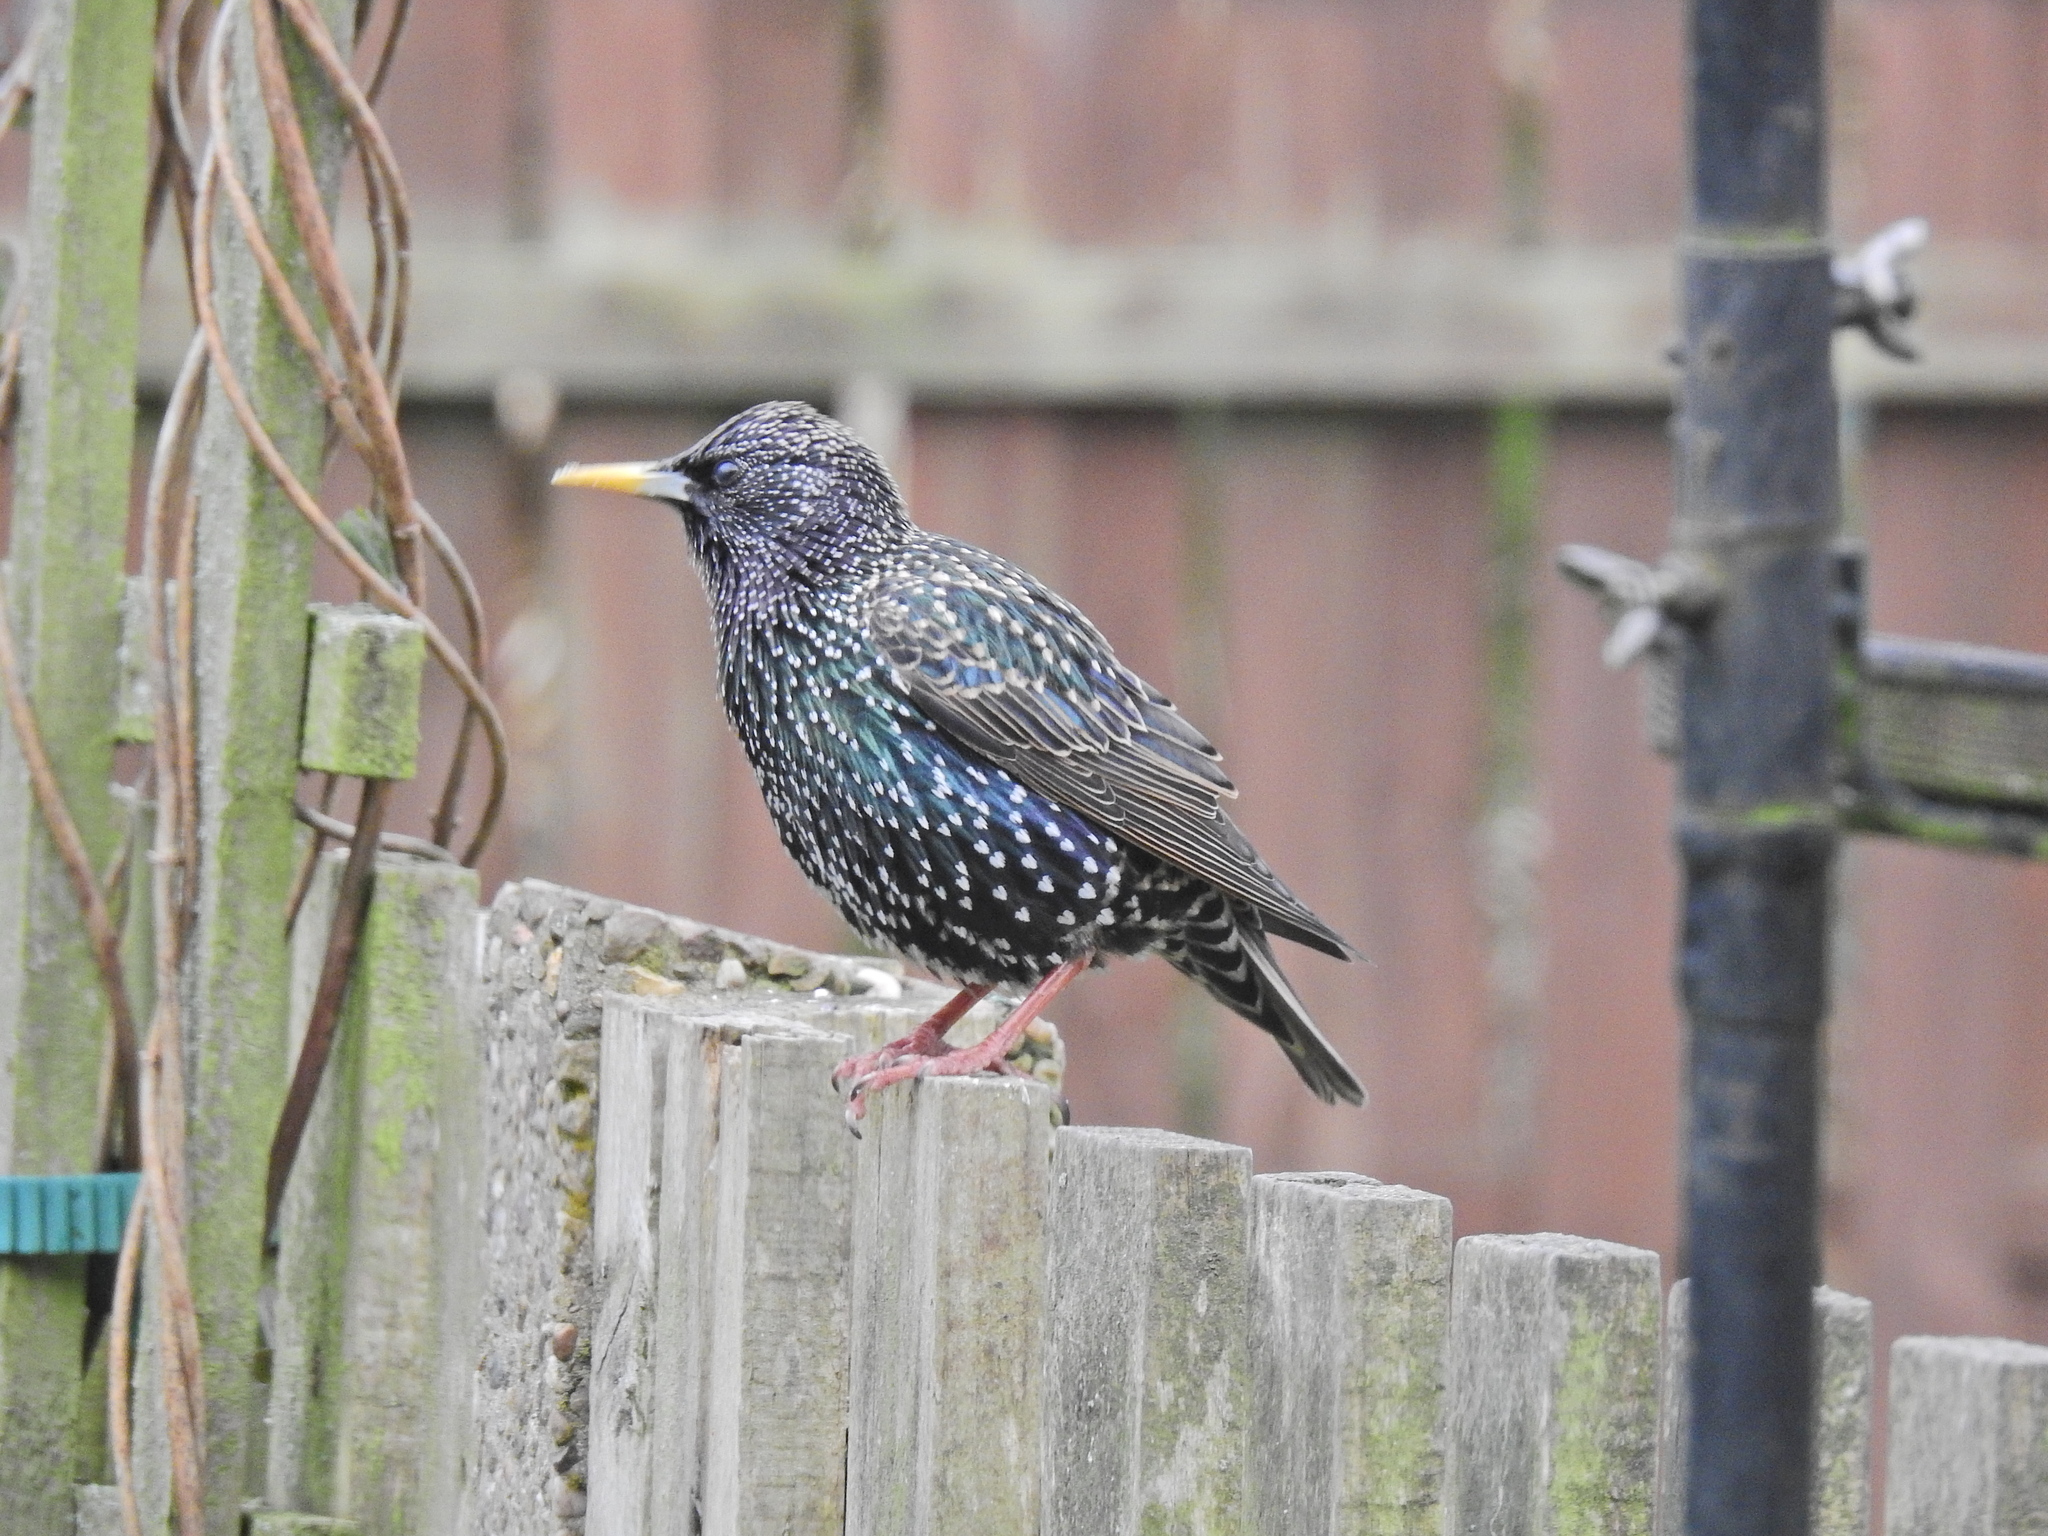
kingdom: Animalia
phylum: Chordata
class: Aves
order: Passeriformes
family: Sturnidae
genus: Sturnus
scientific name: Sturnus vulgaris
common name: Common starling
